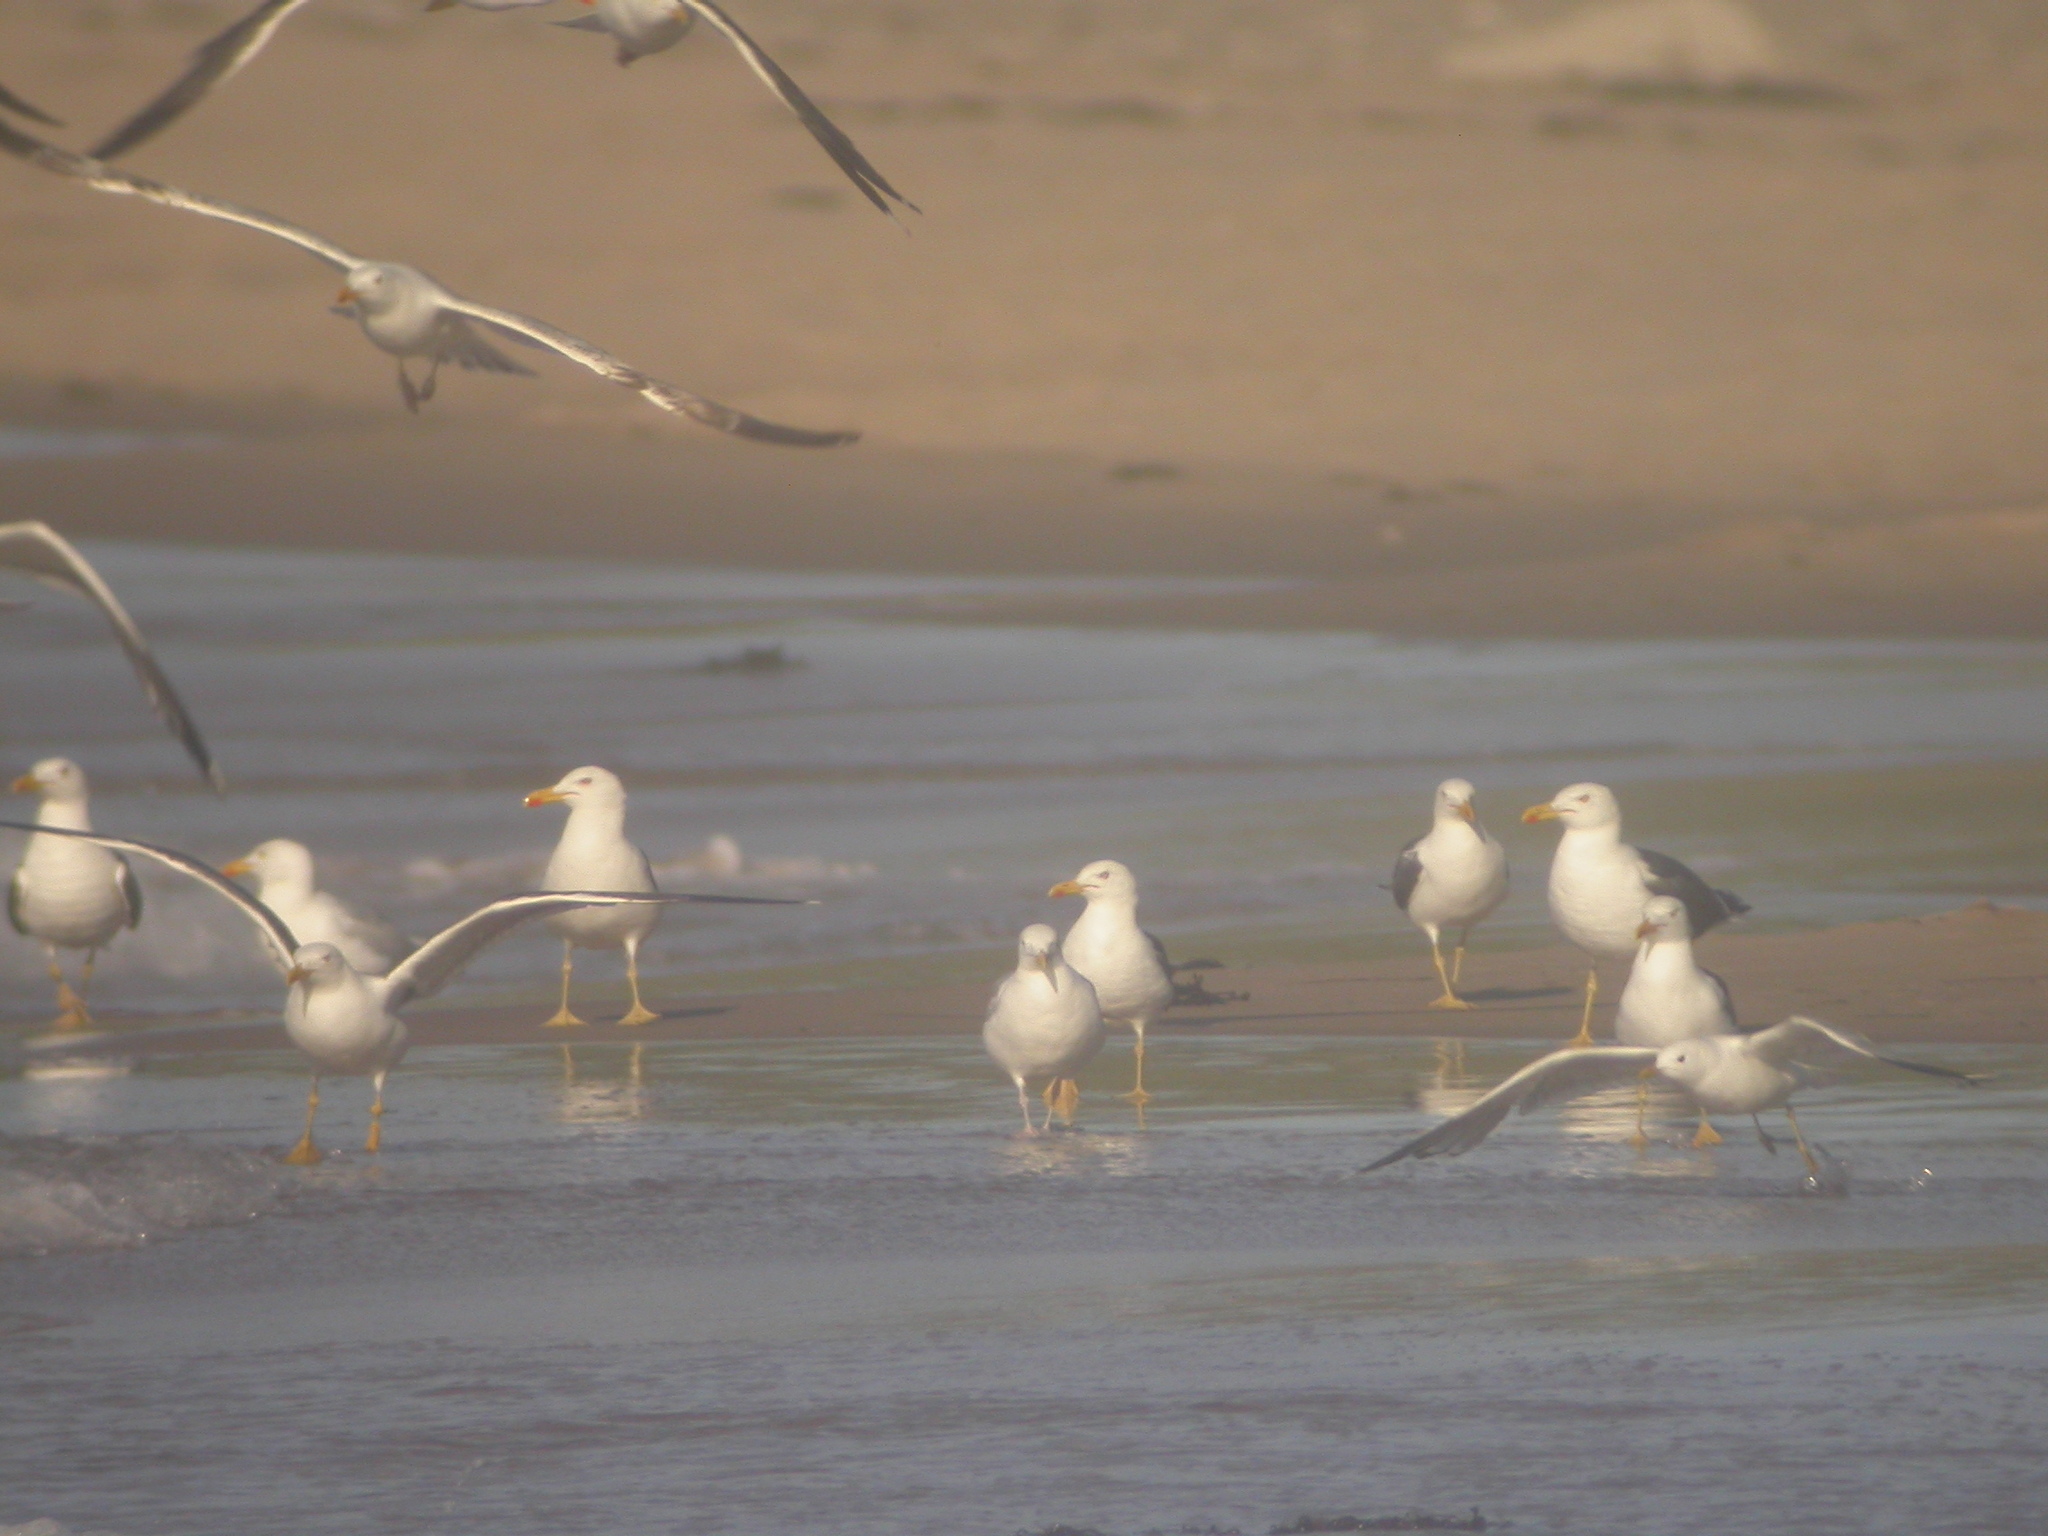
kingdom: Animalia
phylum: Chordata
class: Aves
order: Charadriiformes
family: Laridae
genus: Larus
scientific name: Larus fuscus
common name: Lesser black-backed gull
